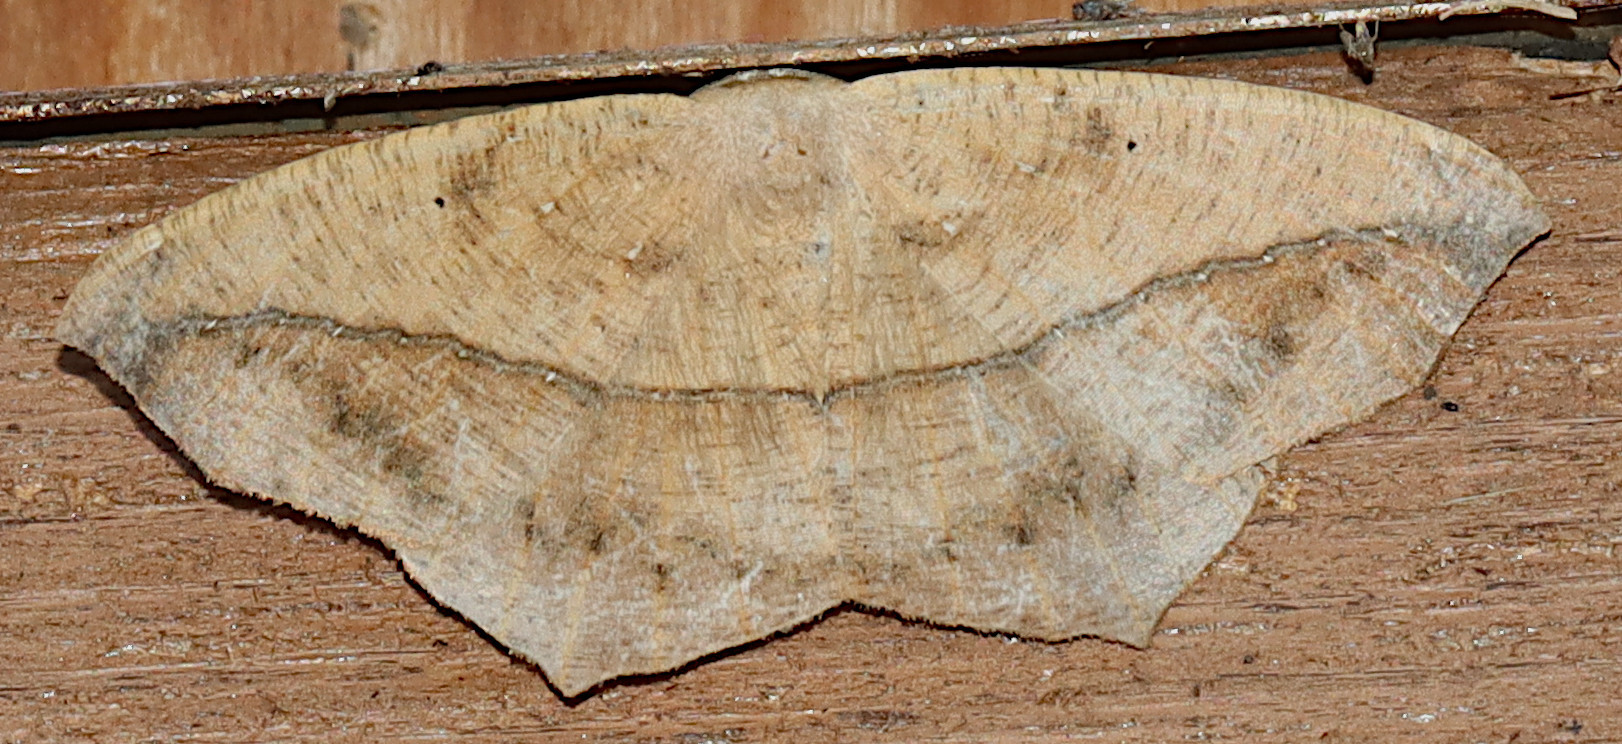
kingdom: Animalia
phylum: Arthropoda
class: Insecta
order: Lepidoptera
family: Geometridae
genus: Prochoerodes
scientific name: Prochoerodes lineola
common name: Large maple spanworm
